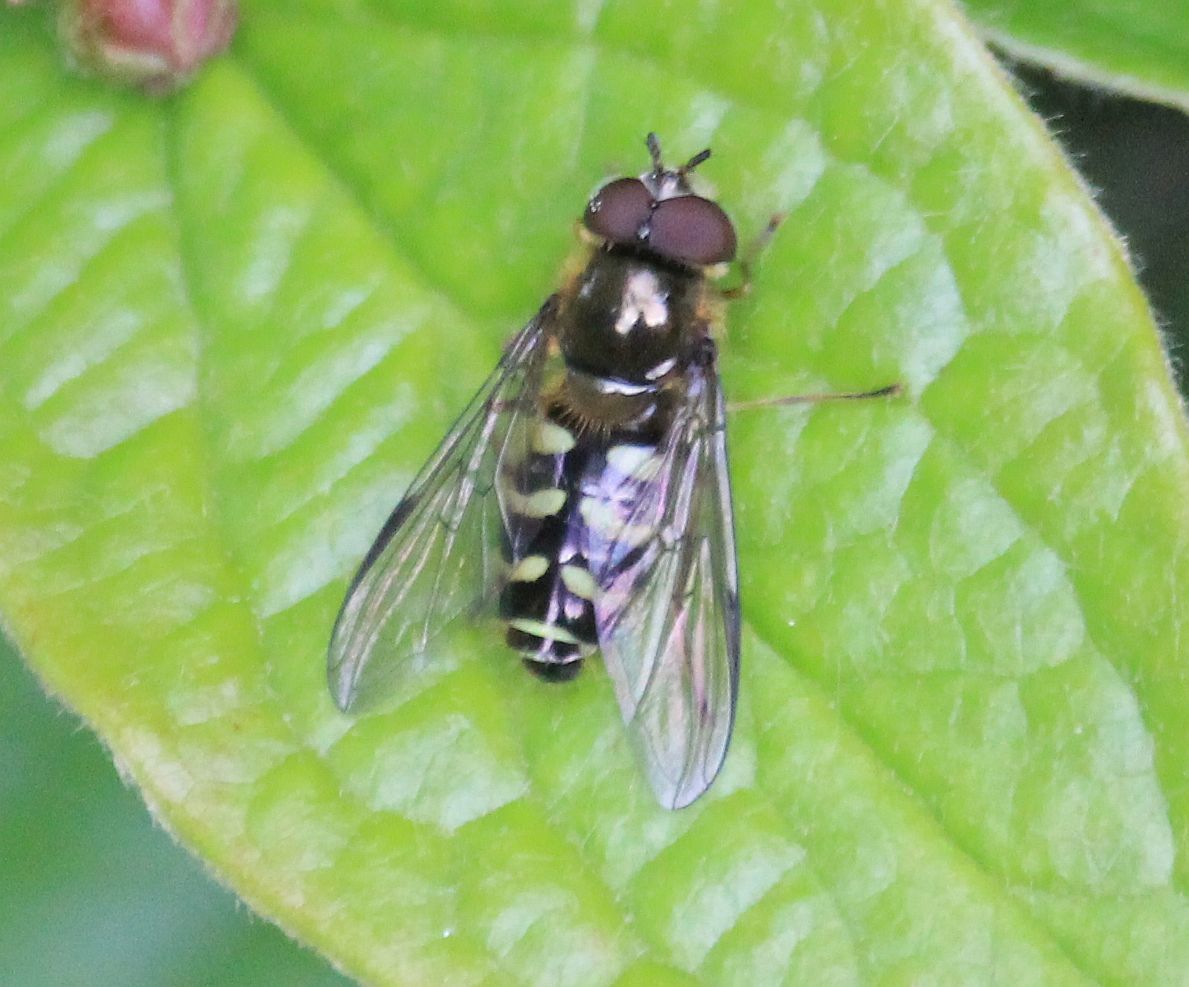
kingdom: Animalia
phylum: Arthropoda
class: Insecta
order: Diptera
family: Syrphidae
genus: Scaeva
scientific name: Scaeva pyrastri
